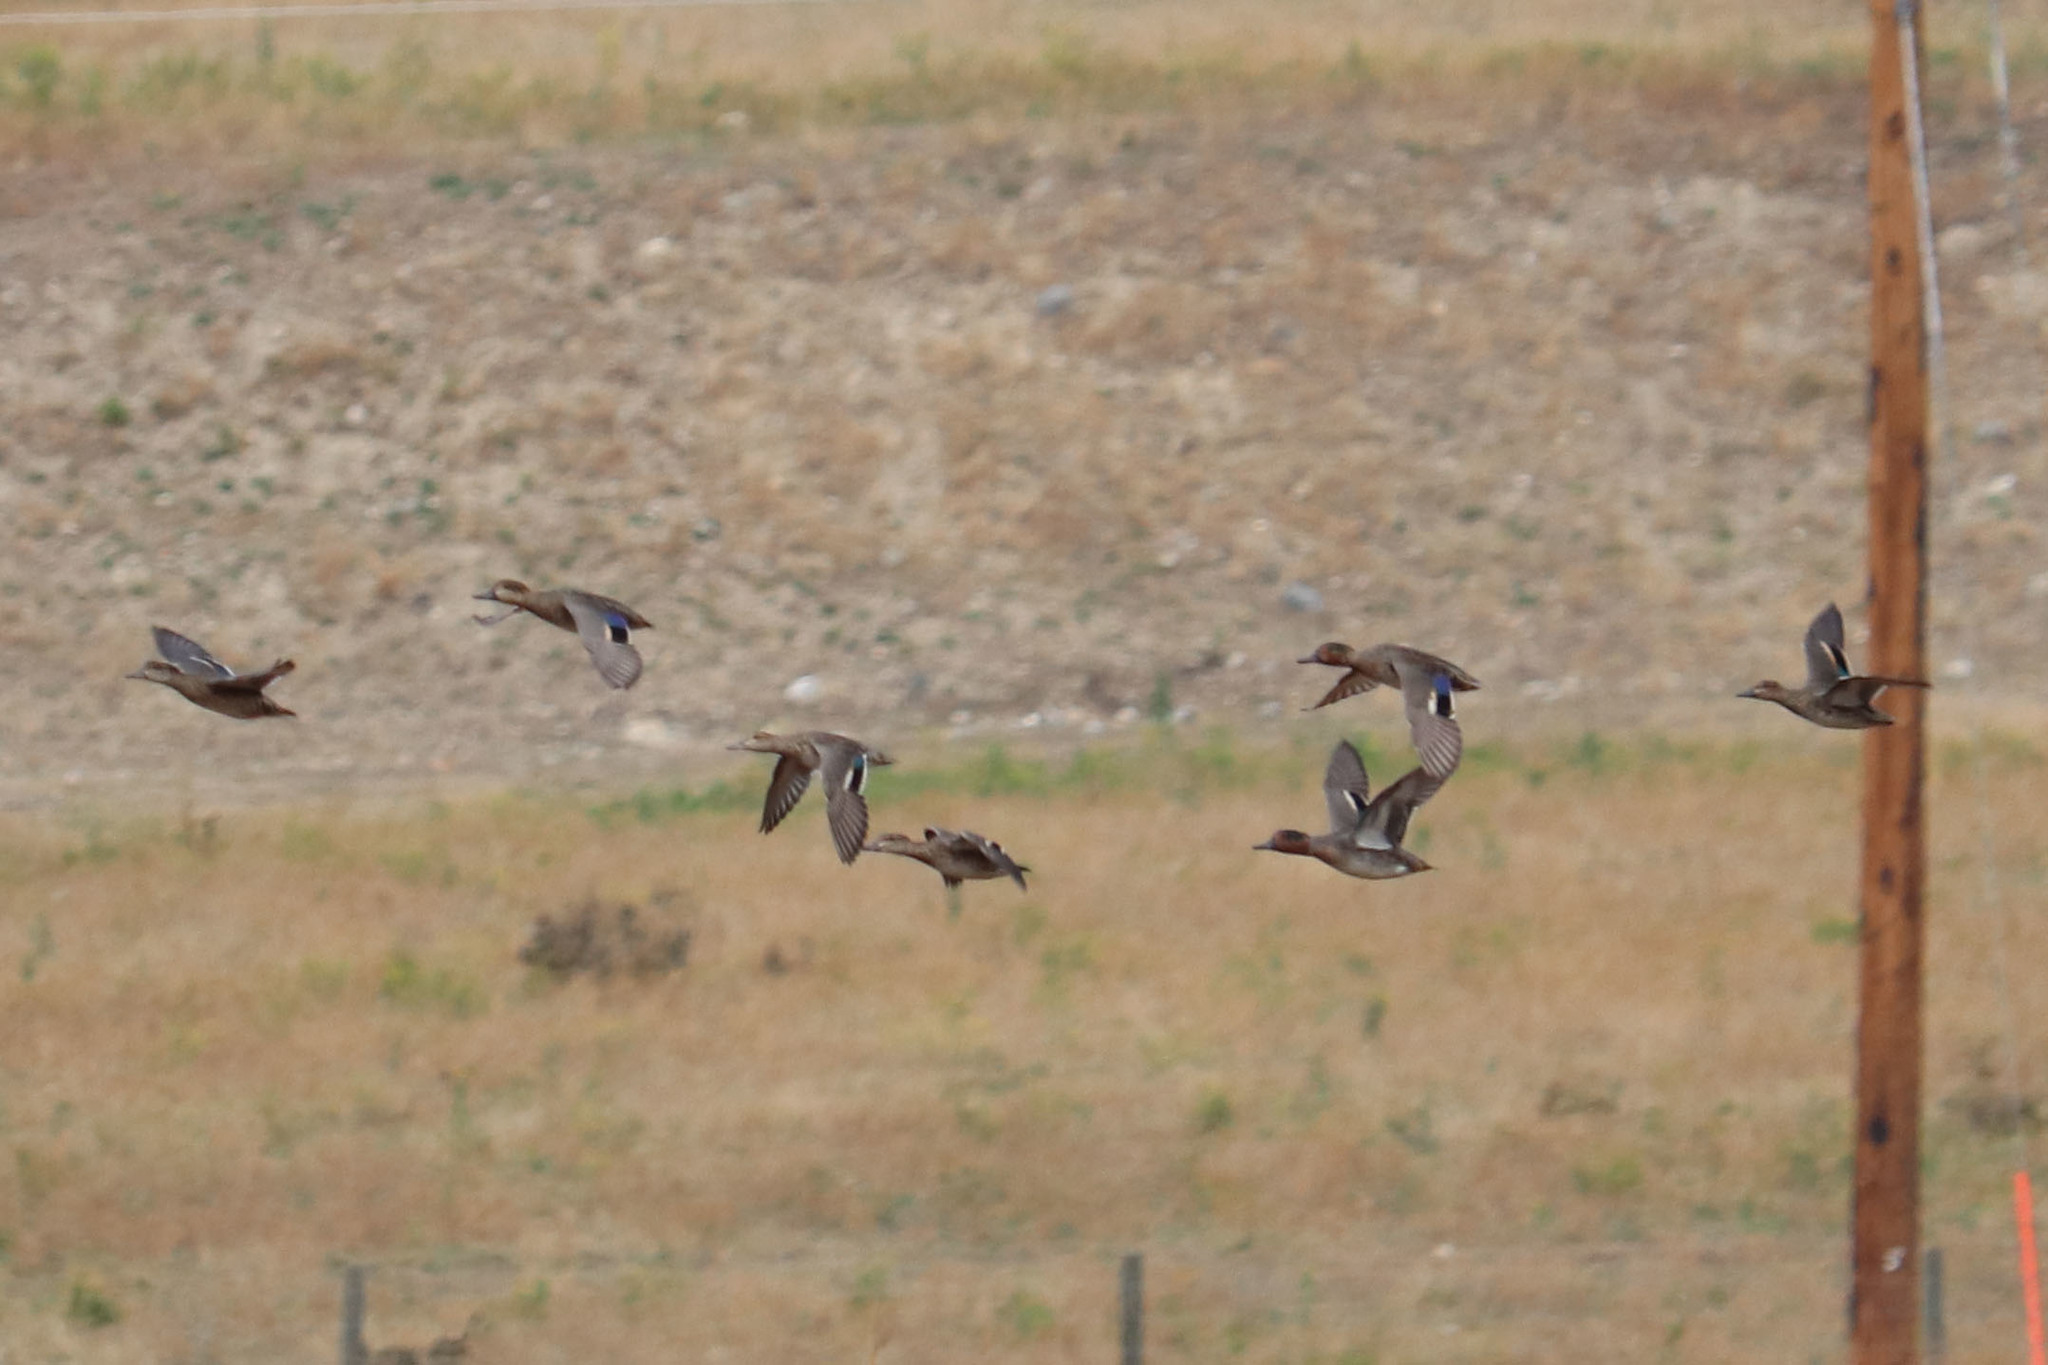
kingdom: Animalia
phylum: Chordata
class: Aves
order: Anseriformes
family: Anatidae
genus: Anas
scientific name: Anas crecca
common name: Eurasian teal
